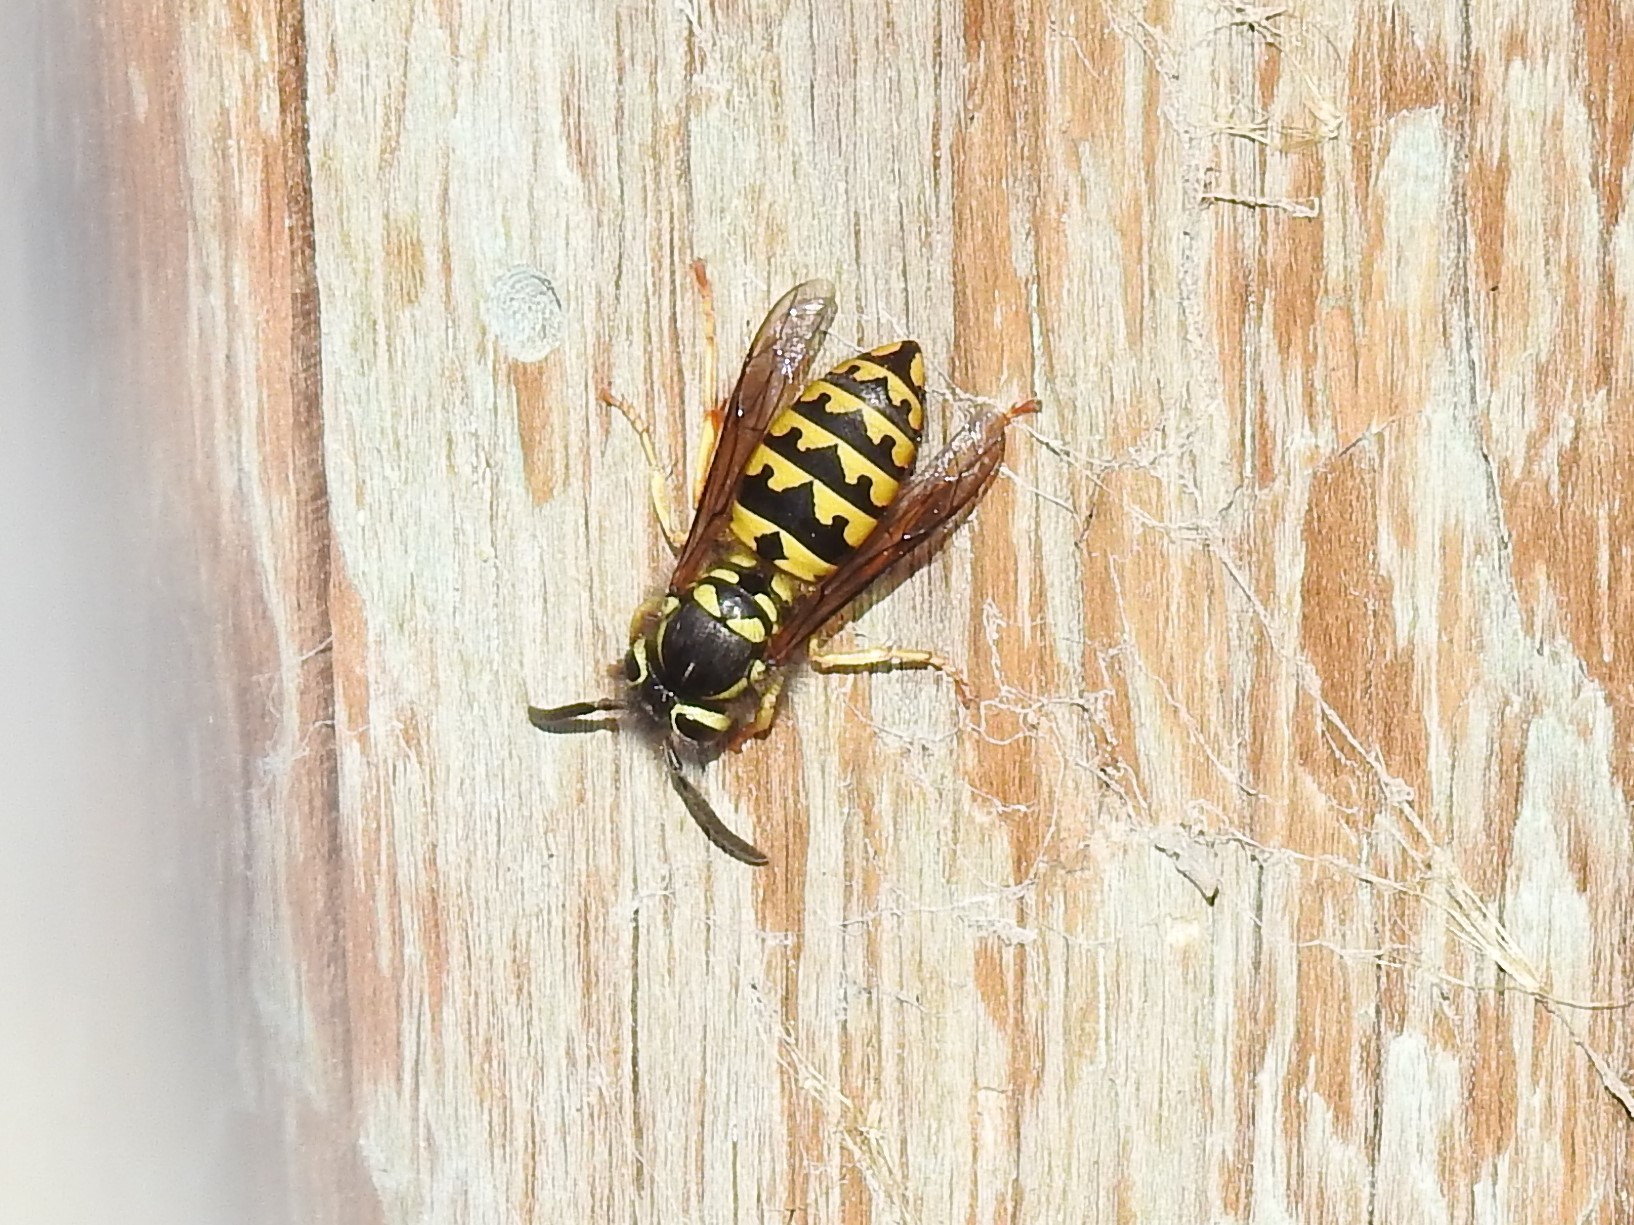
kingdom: Animalia
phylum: Arthropoda
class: Insecta
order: Hymenoptera
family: Vespidae
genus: Vespula
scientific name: Vespula pensylvanica
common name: Western yellowjacket
